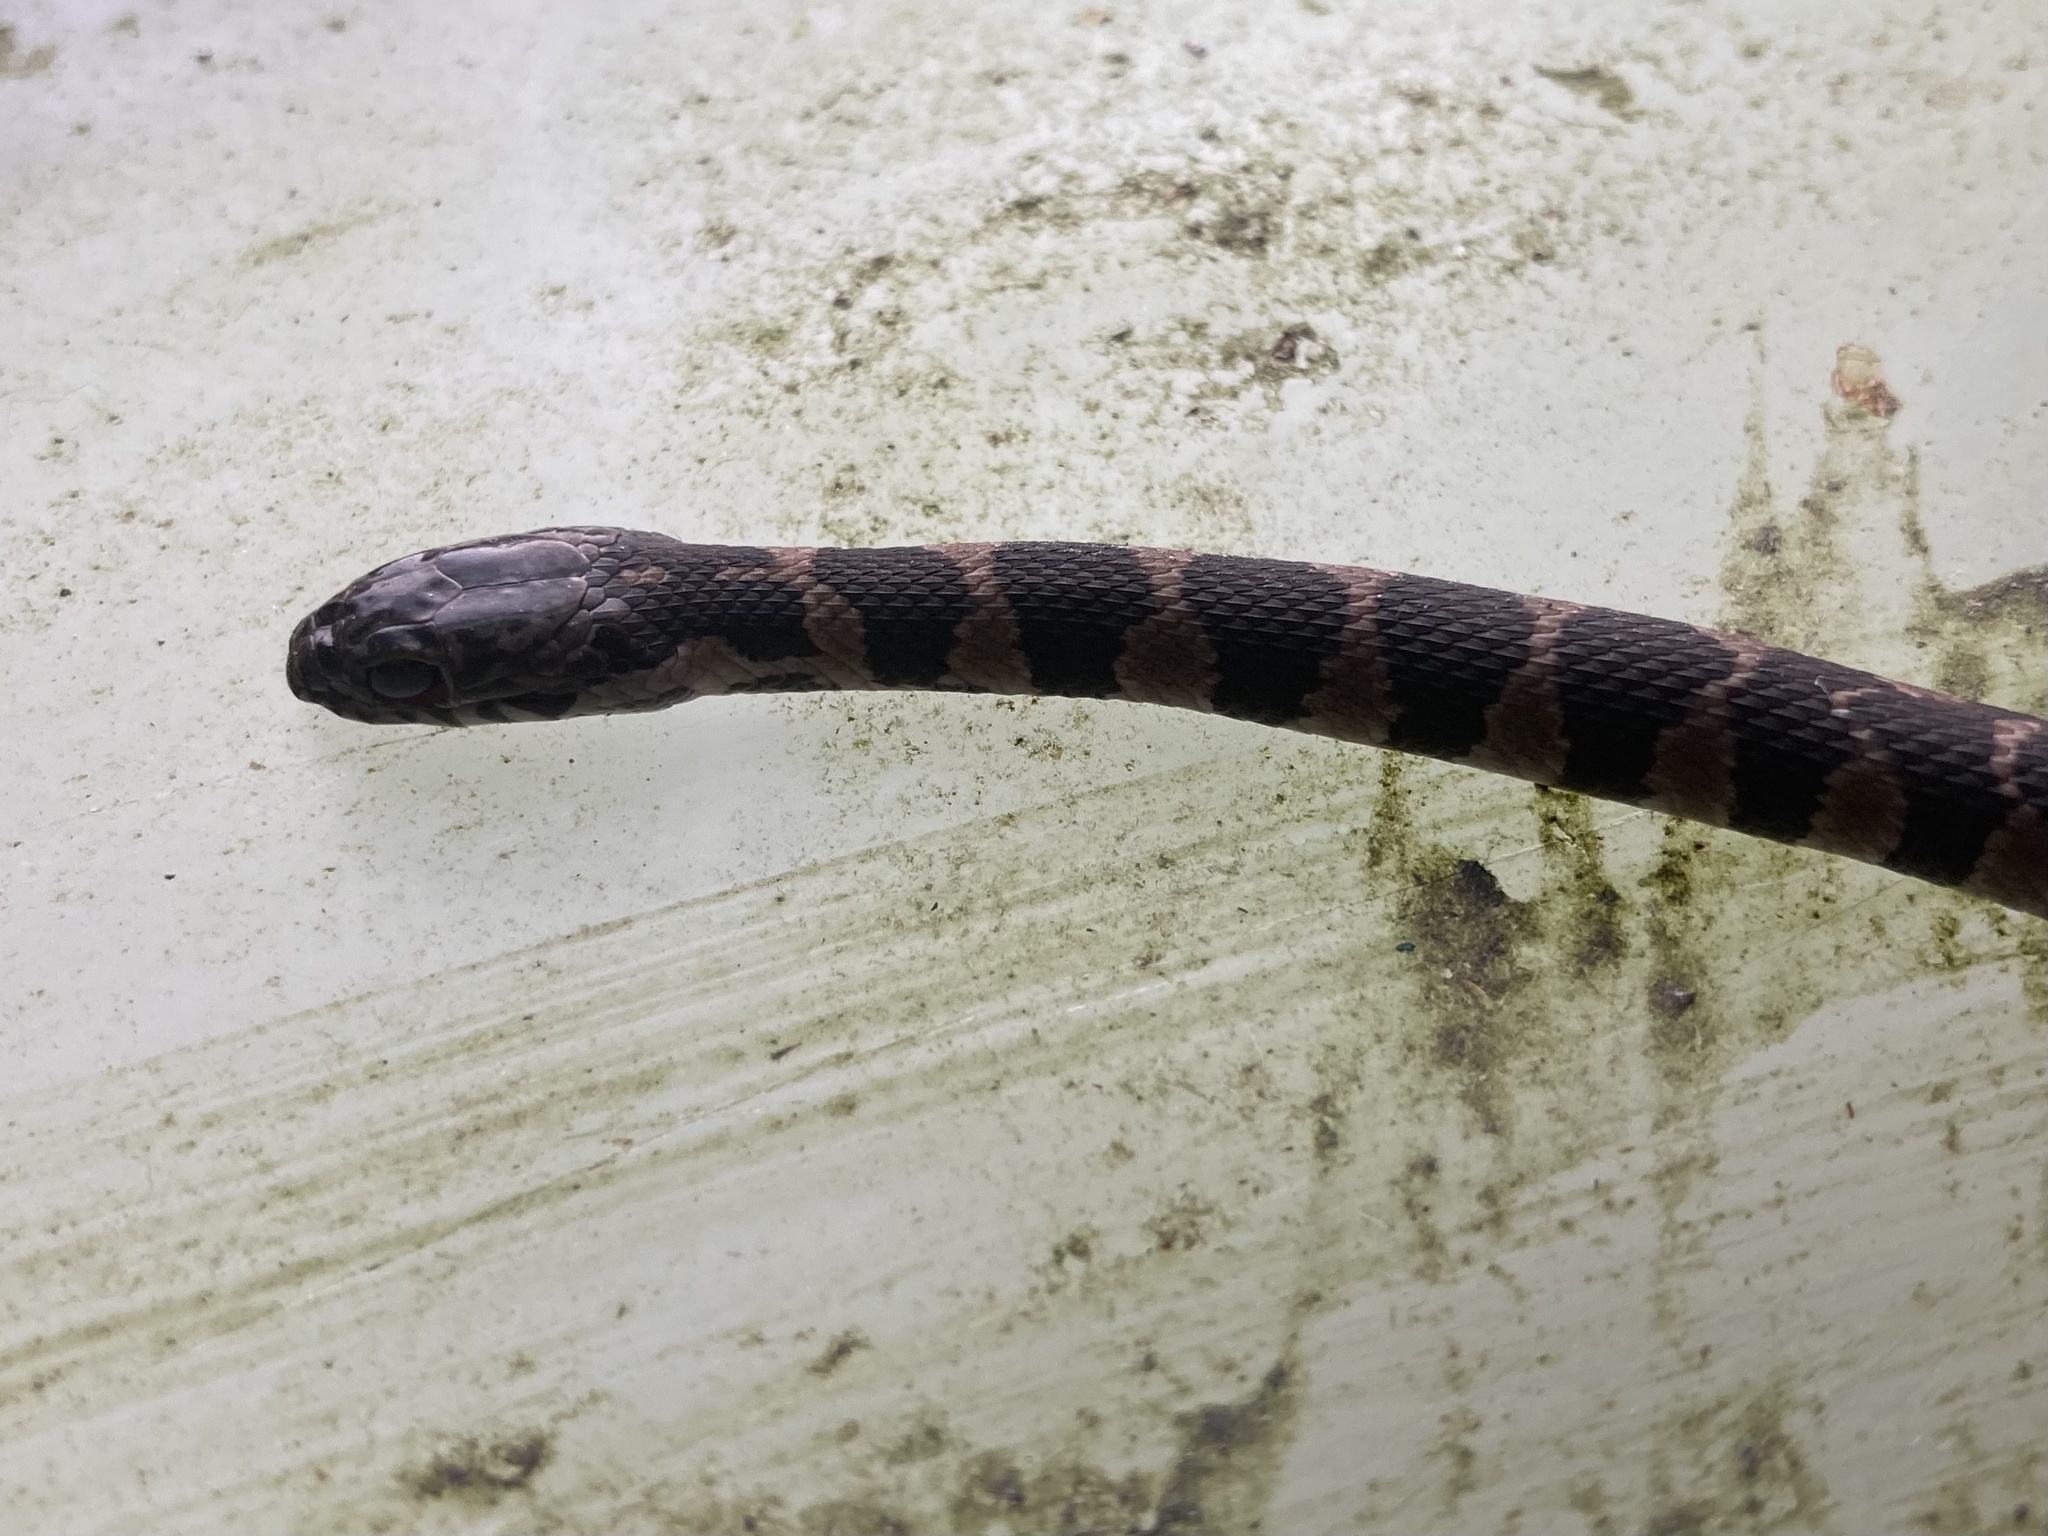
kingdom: Animalia
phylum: Chordata
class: Squamata
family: Colubridae
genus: Nerodia
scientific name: Nerodia sipedon
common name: Northern water snake
